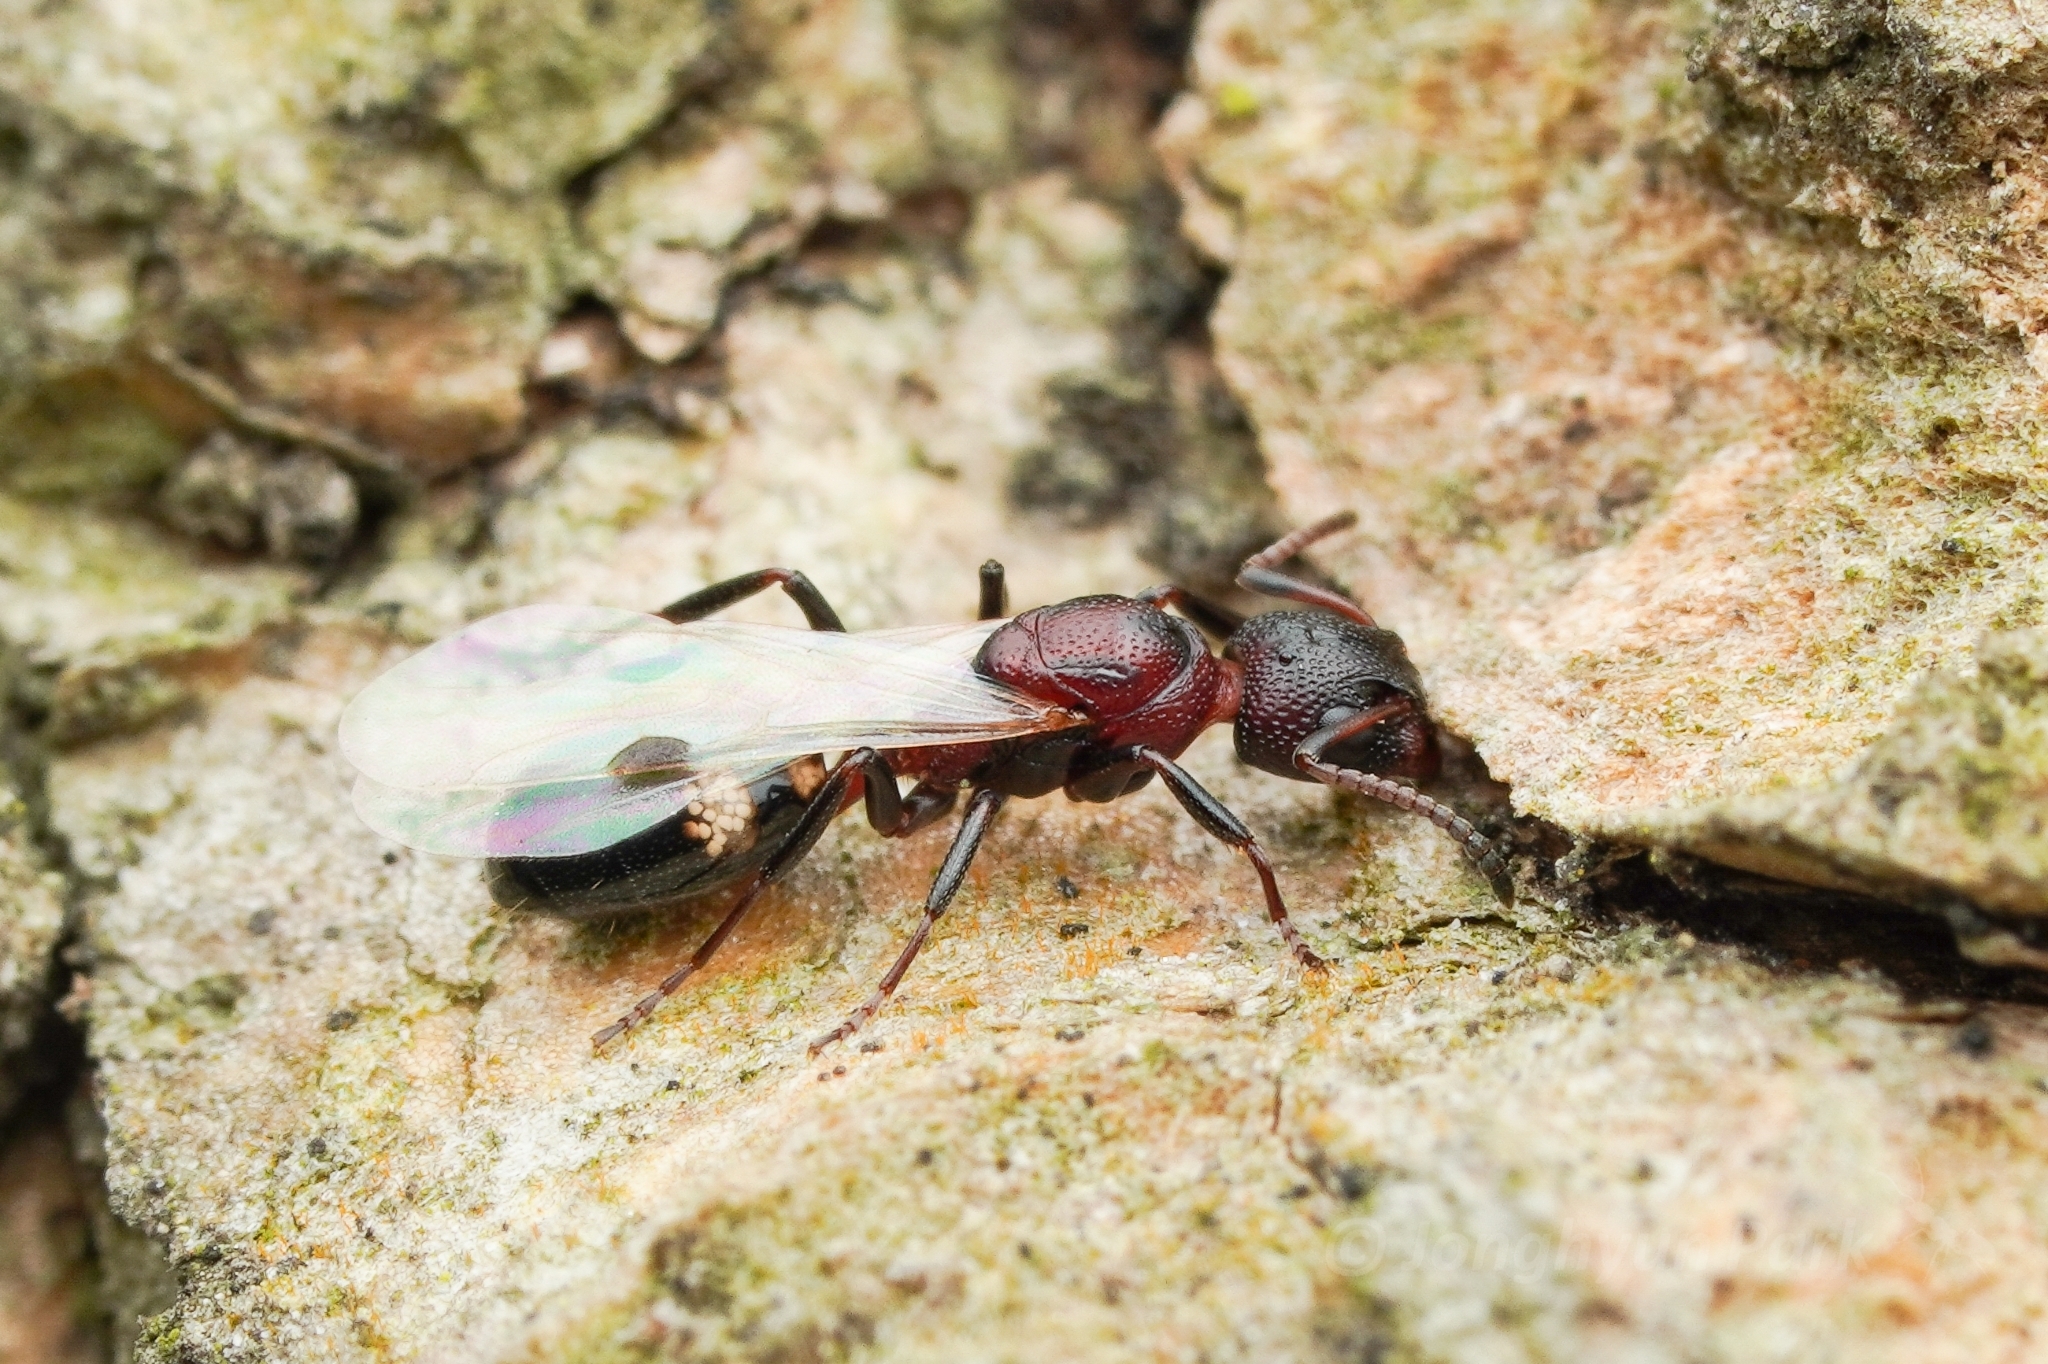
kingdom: Animalia
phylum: Arthropoda
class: Insecta
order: Hymenoptera
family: Formicidae
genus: Dolichoderus
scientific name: Dolichoderus sibiricus
